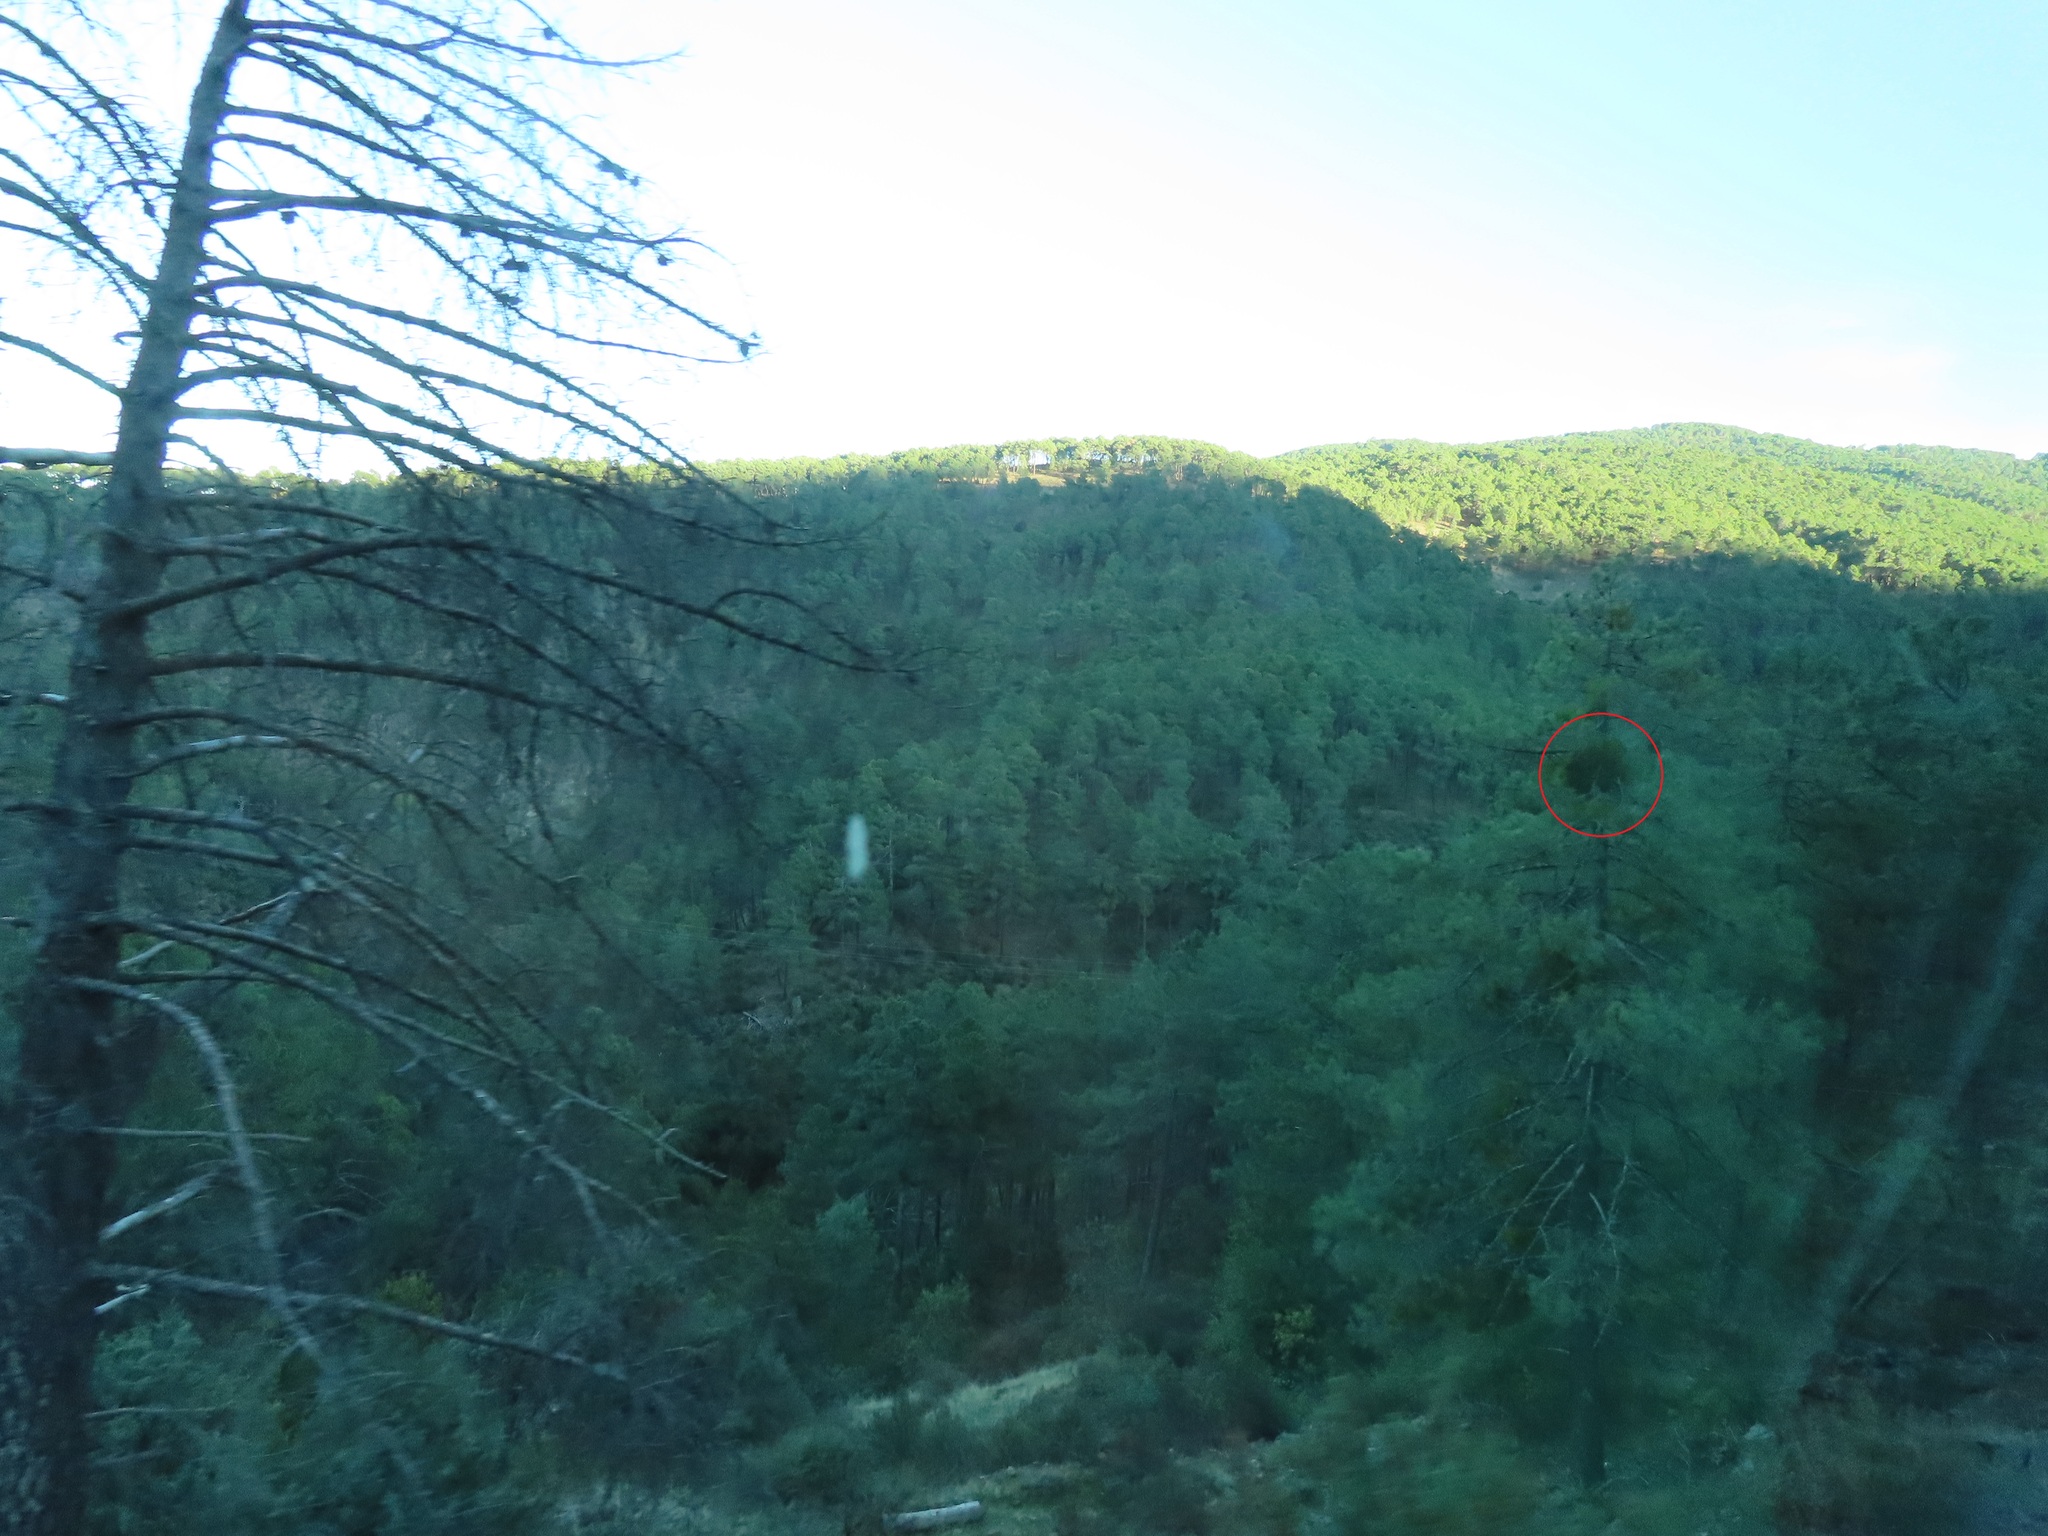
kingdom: Plantae
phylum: Tracheophyta
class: Magnoliopsida
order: Santalales
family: Viscaceae
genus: Viscum
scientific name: Viscum laxum
